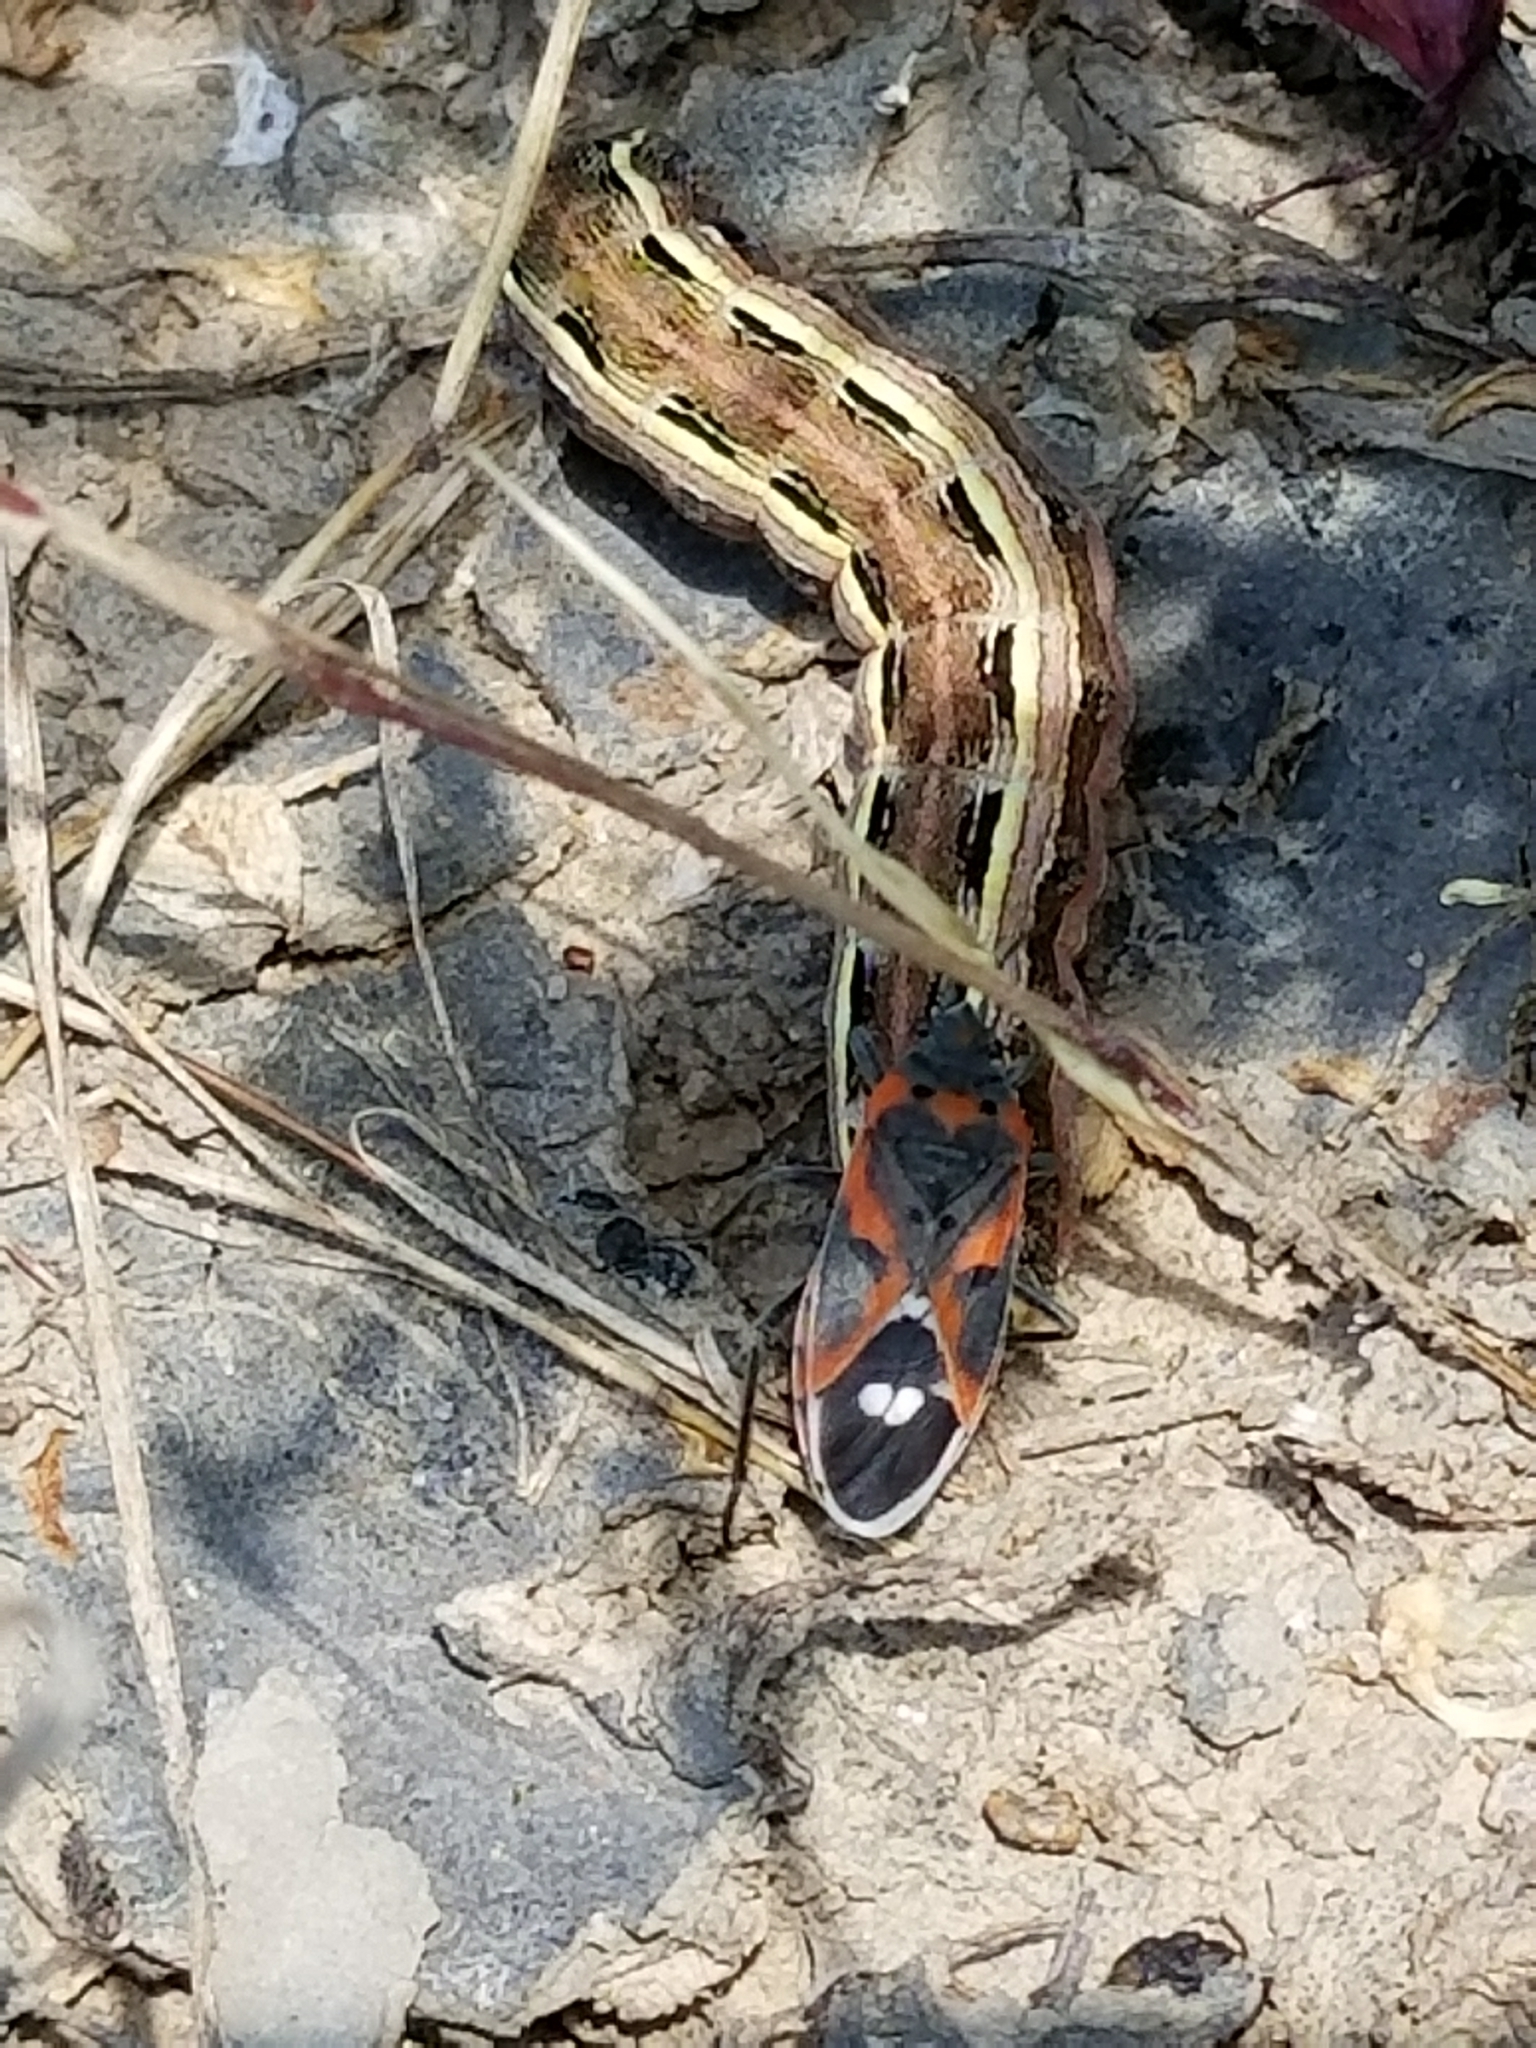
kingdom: Animalia
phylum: Arthropoda
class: Insecta
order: Hemiptera
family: Lygaeidae
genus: Lygaeus
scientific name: Lygaeus kalmii
